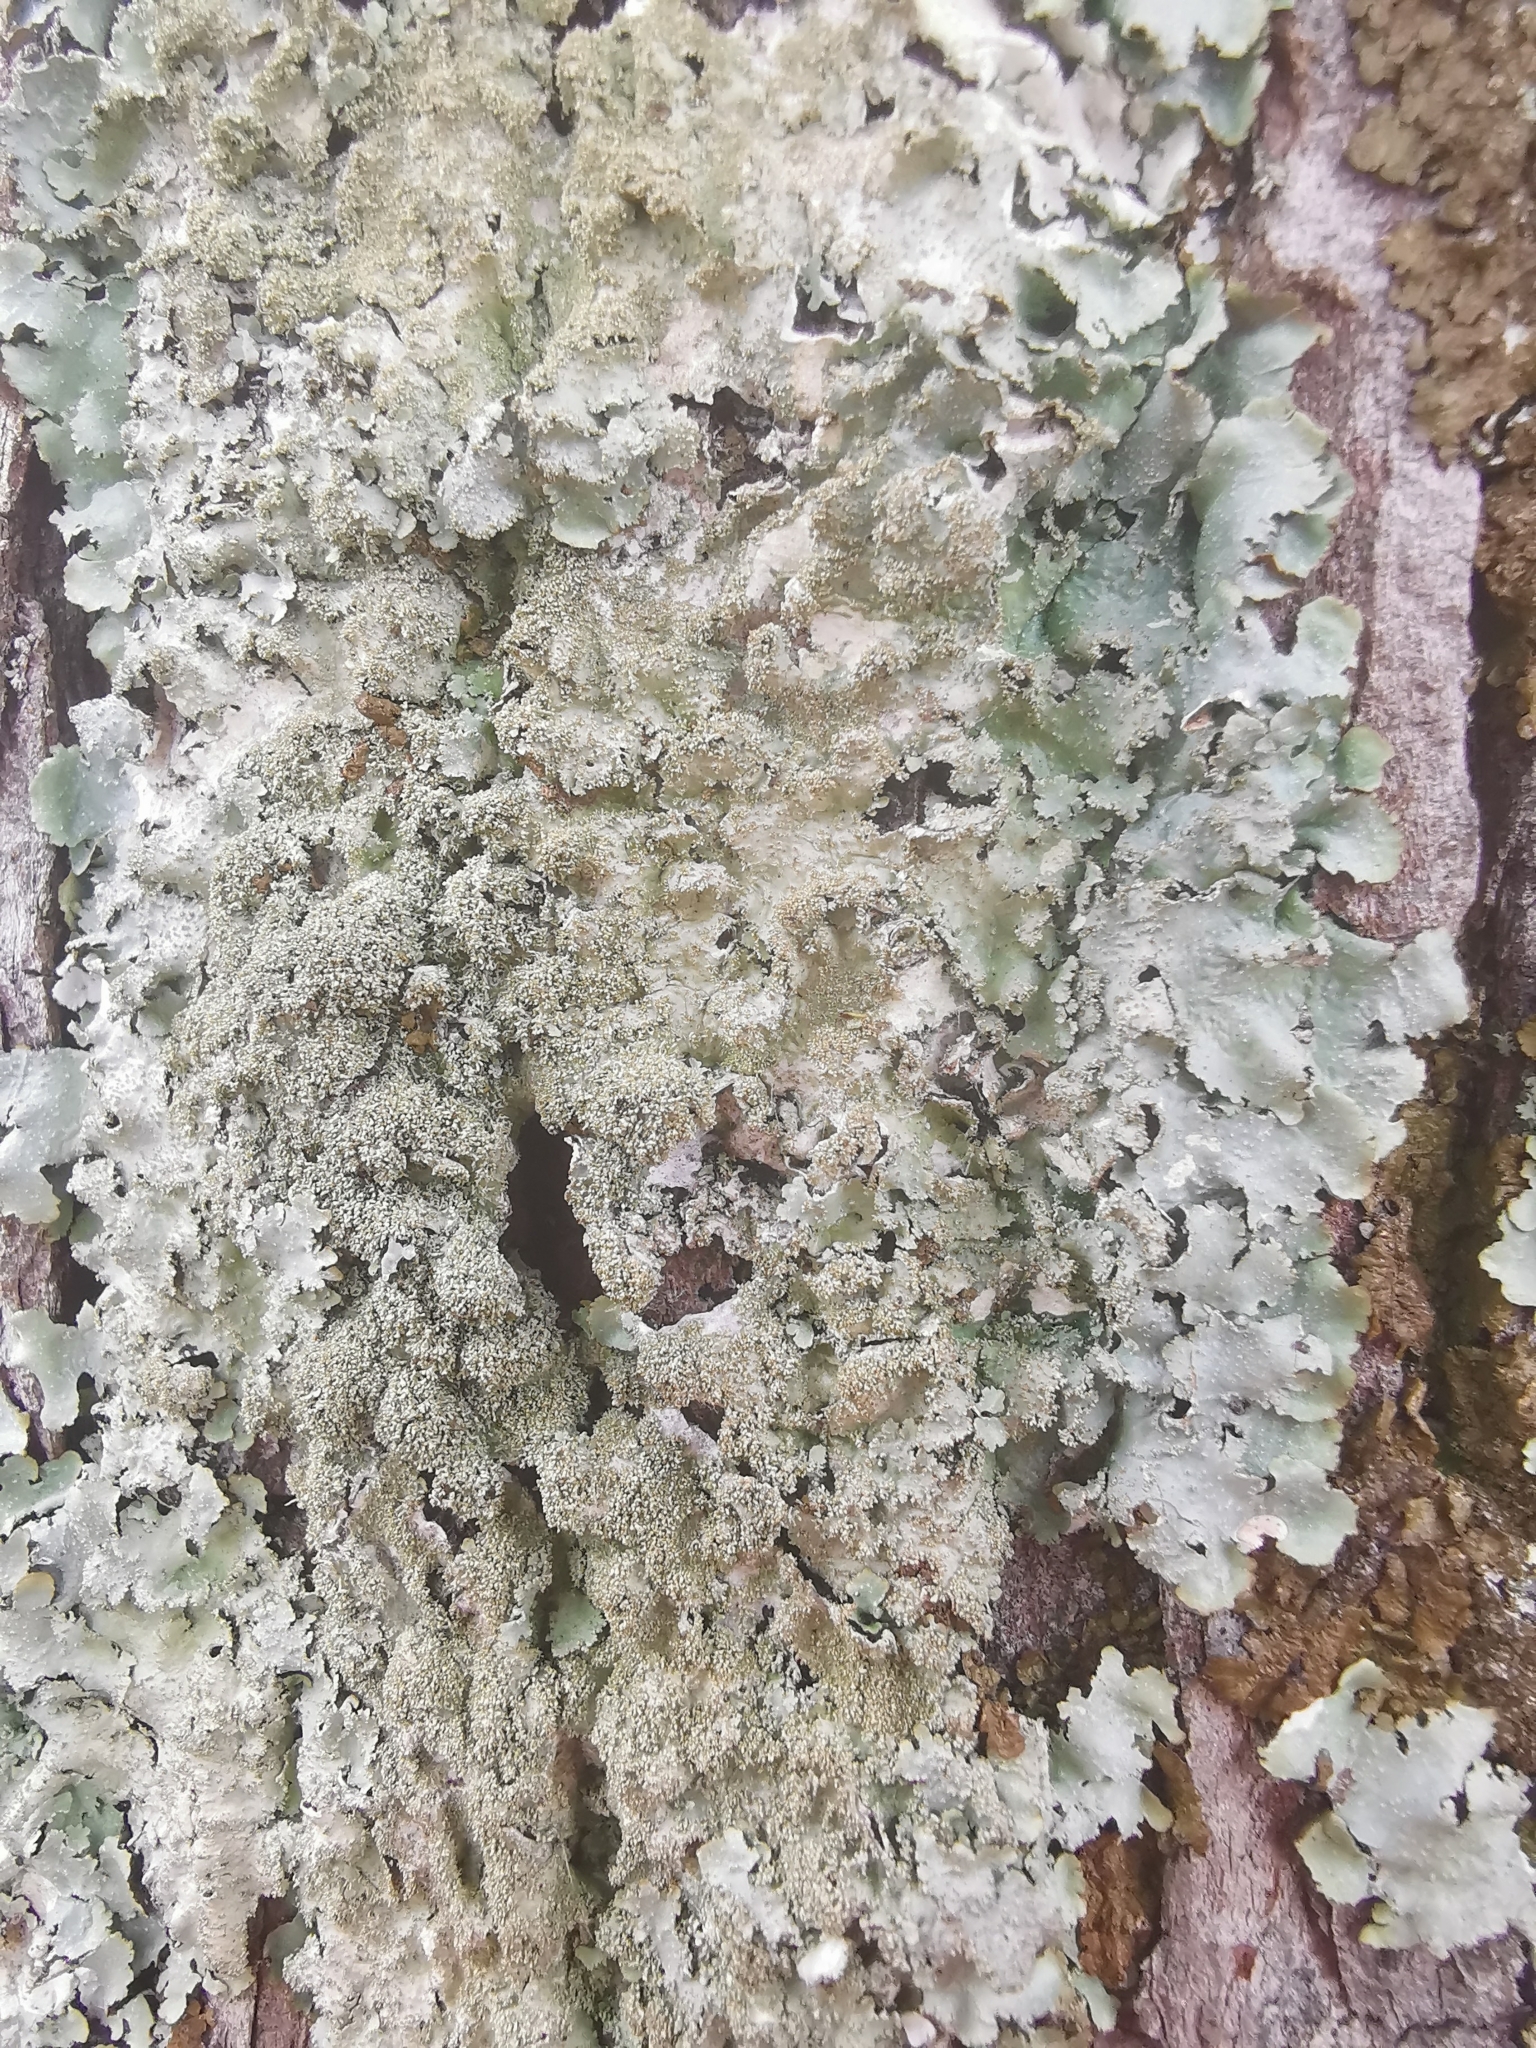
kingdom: Fungi
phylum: Ascomycota
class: Lecanoromycetes
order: Lecanorales
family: Parmeliaceae
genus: Punctelia
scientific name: Punctelia rudecta
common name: Rough speckled shield lichen
